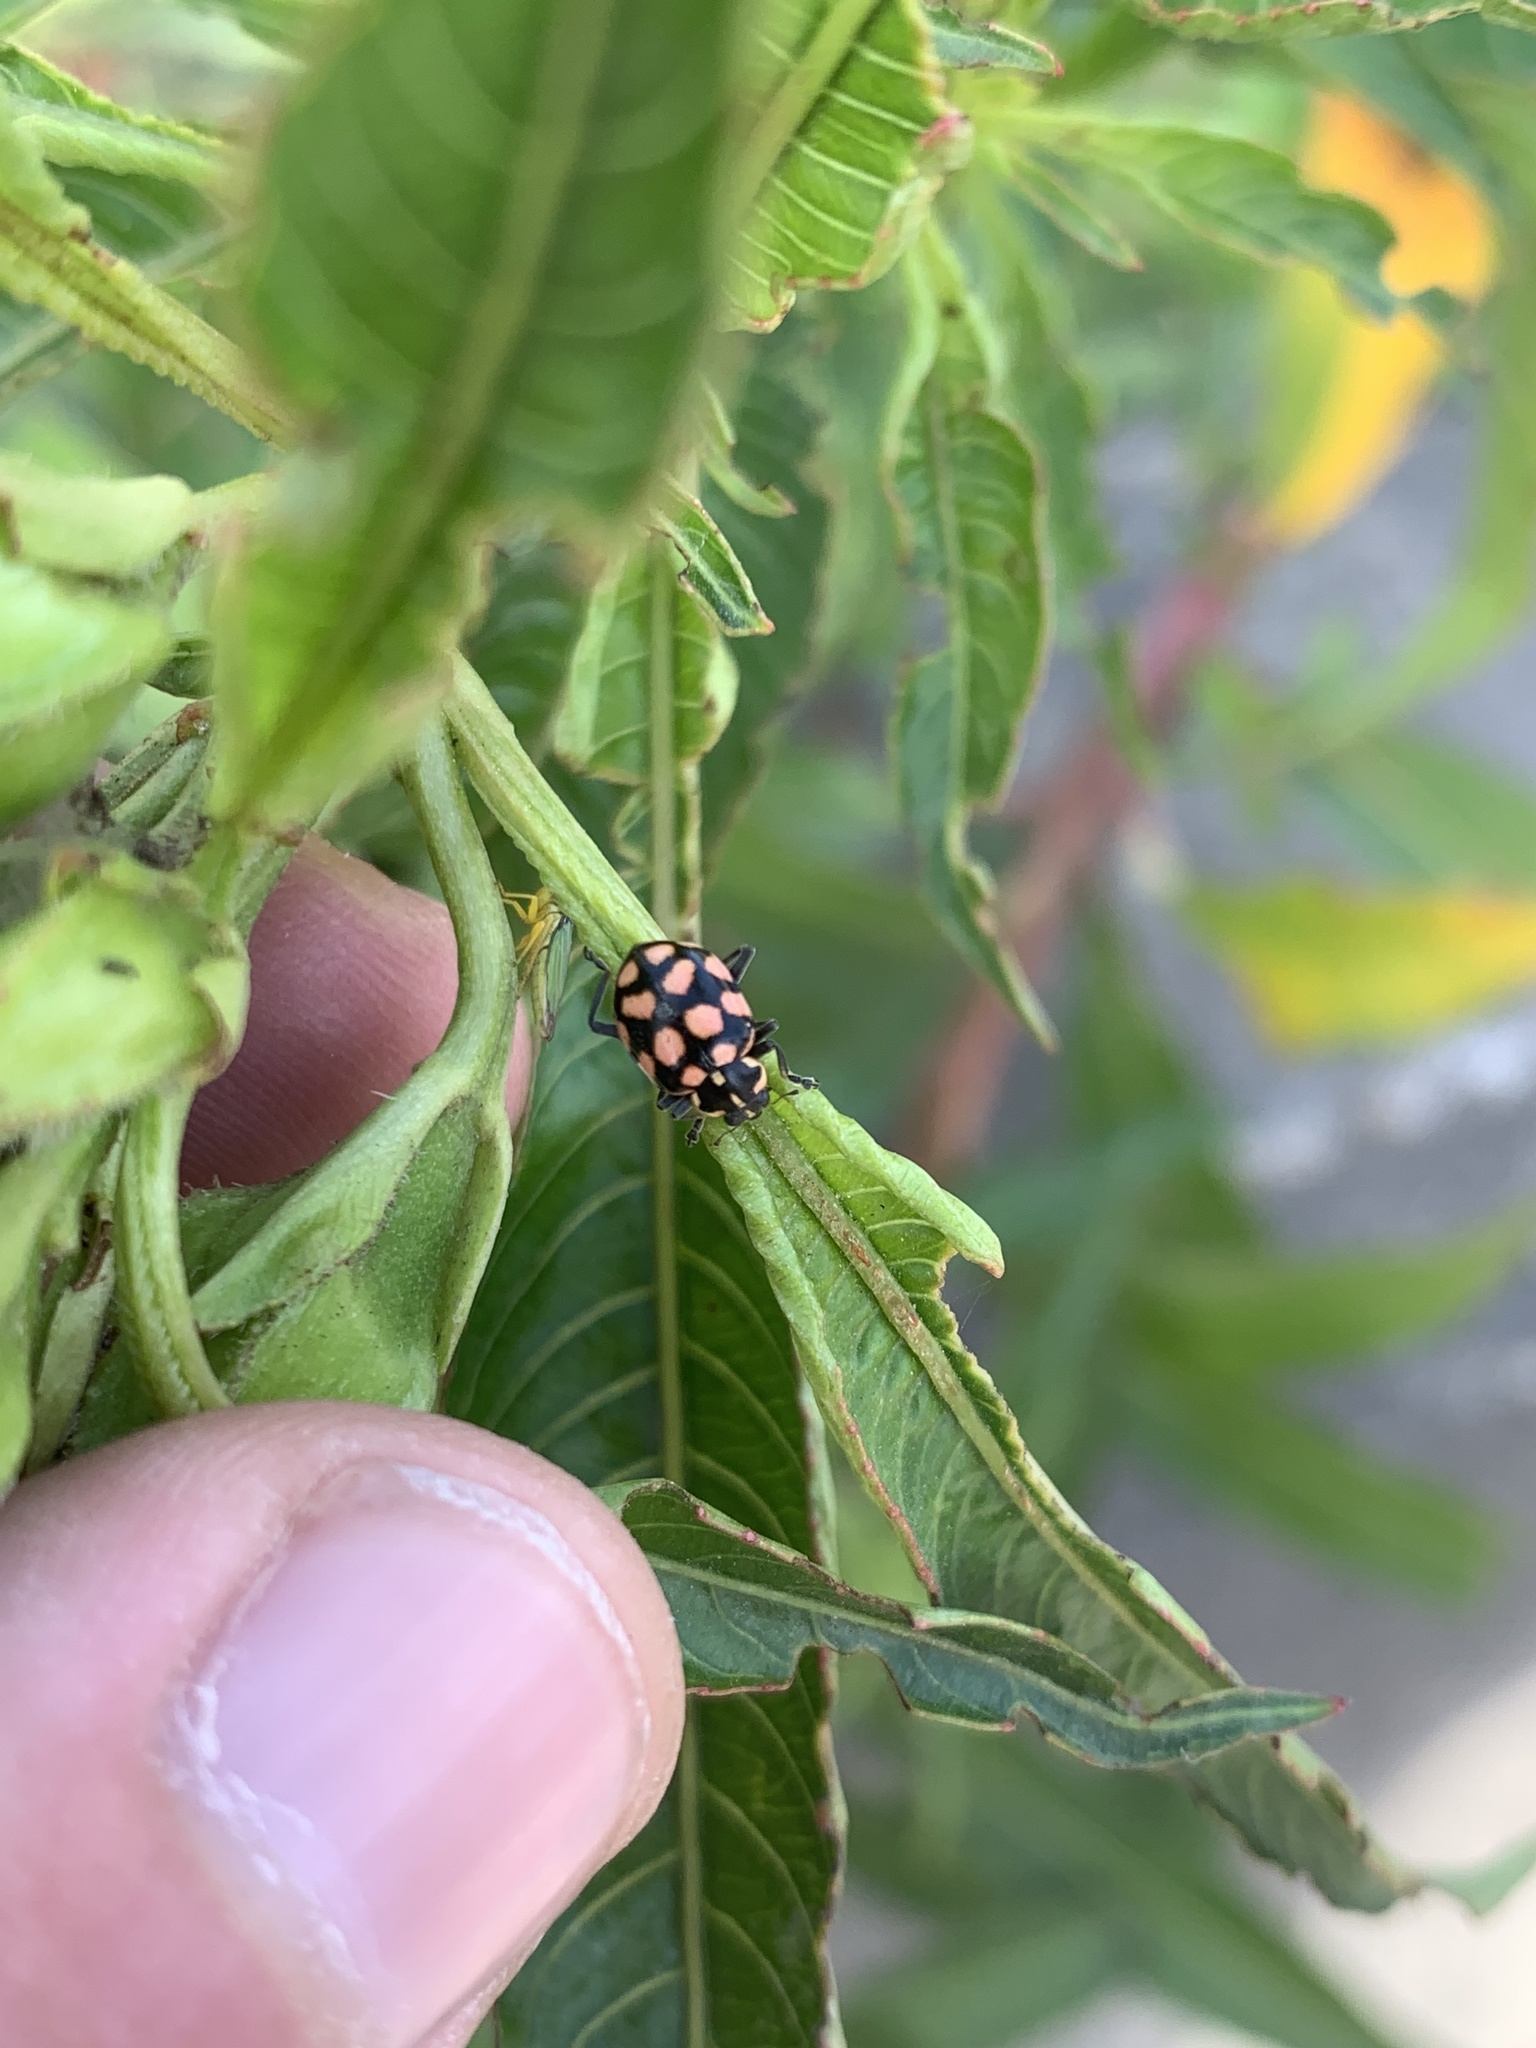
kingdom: Animalia
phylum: Arthropoda
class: Insecta
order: Coleoptera
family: Coccinellidae
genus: Coleomegilla
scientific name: Coleomegilla
